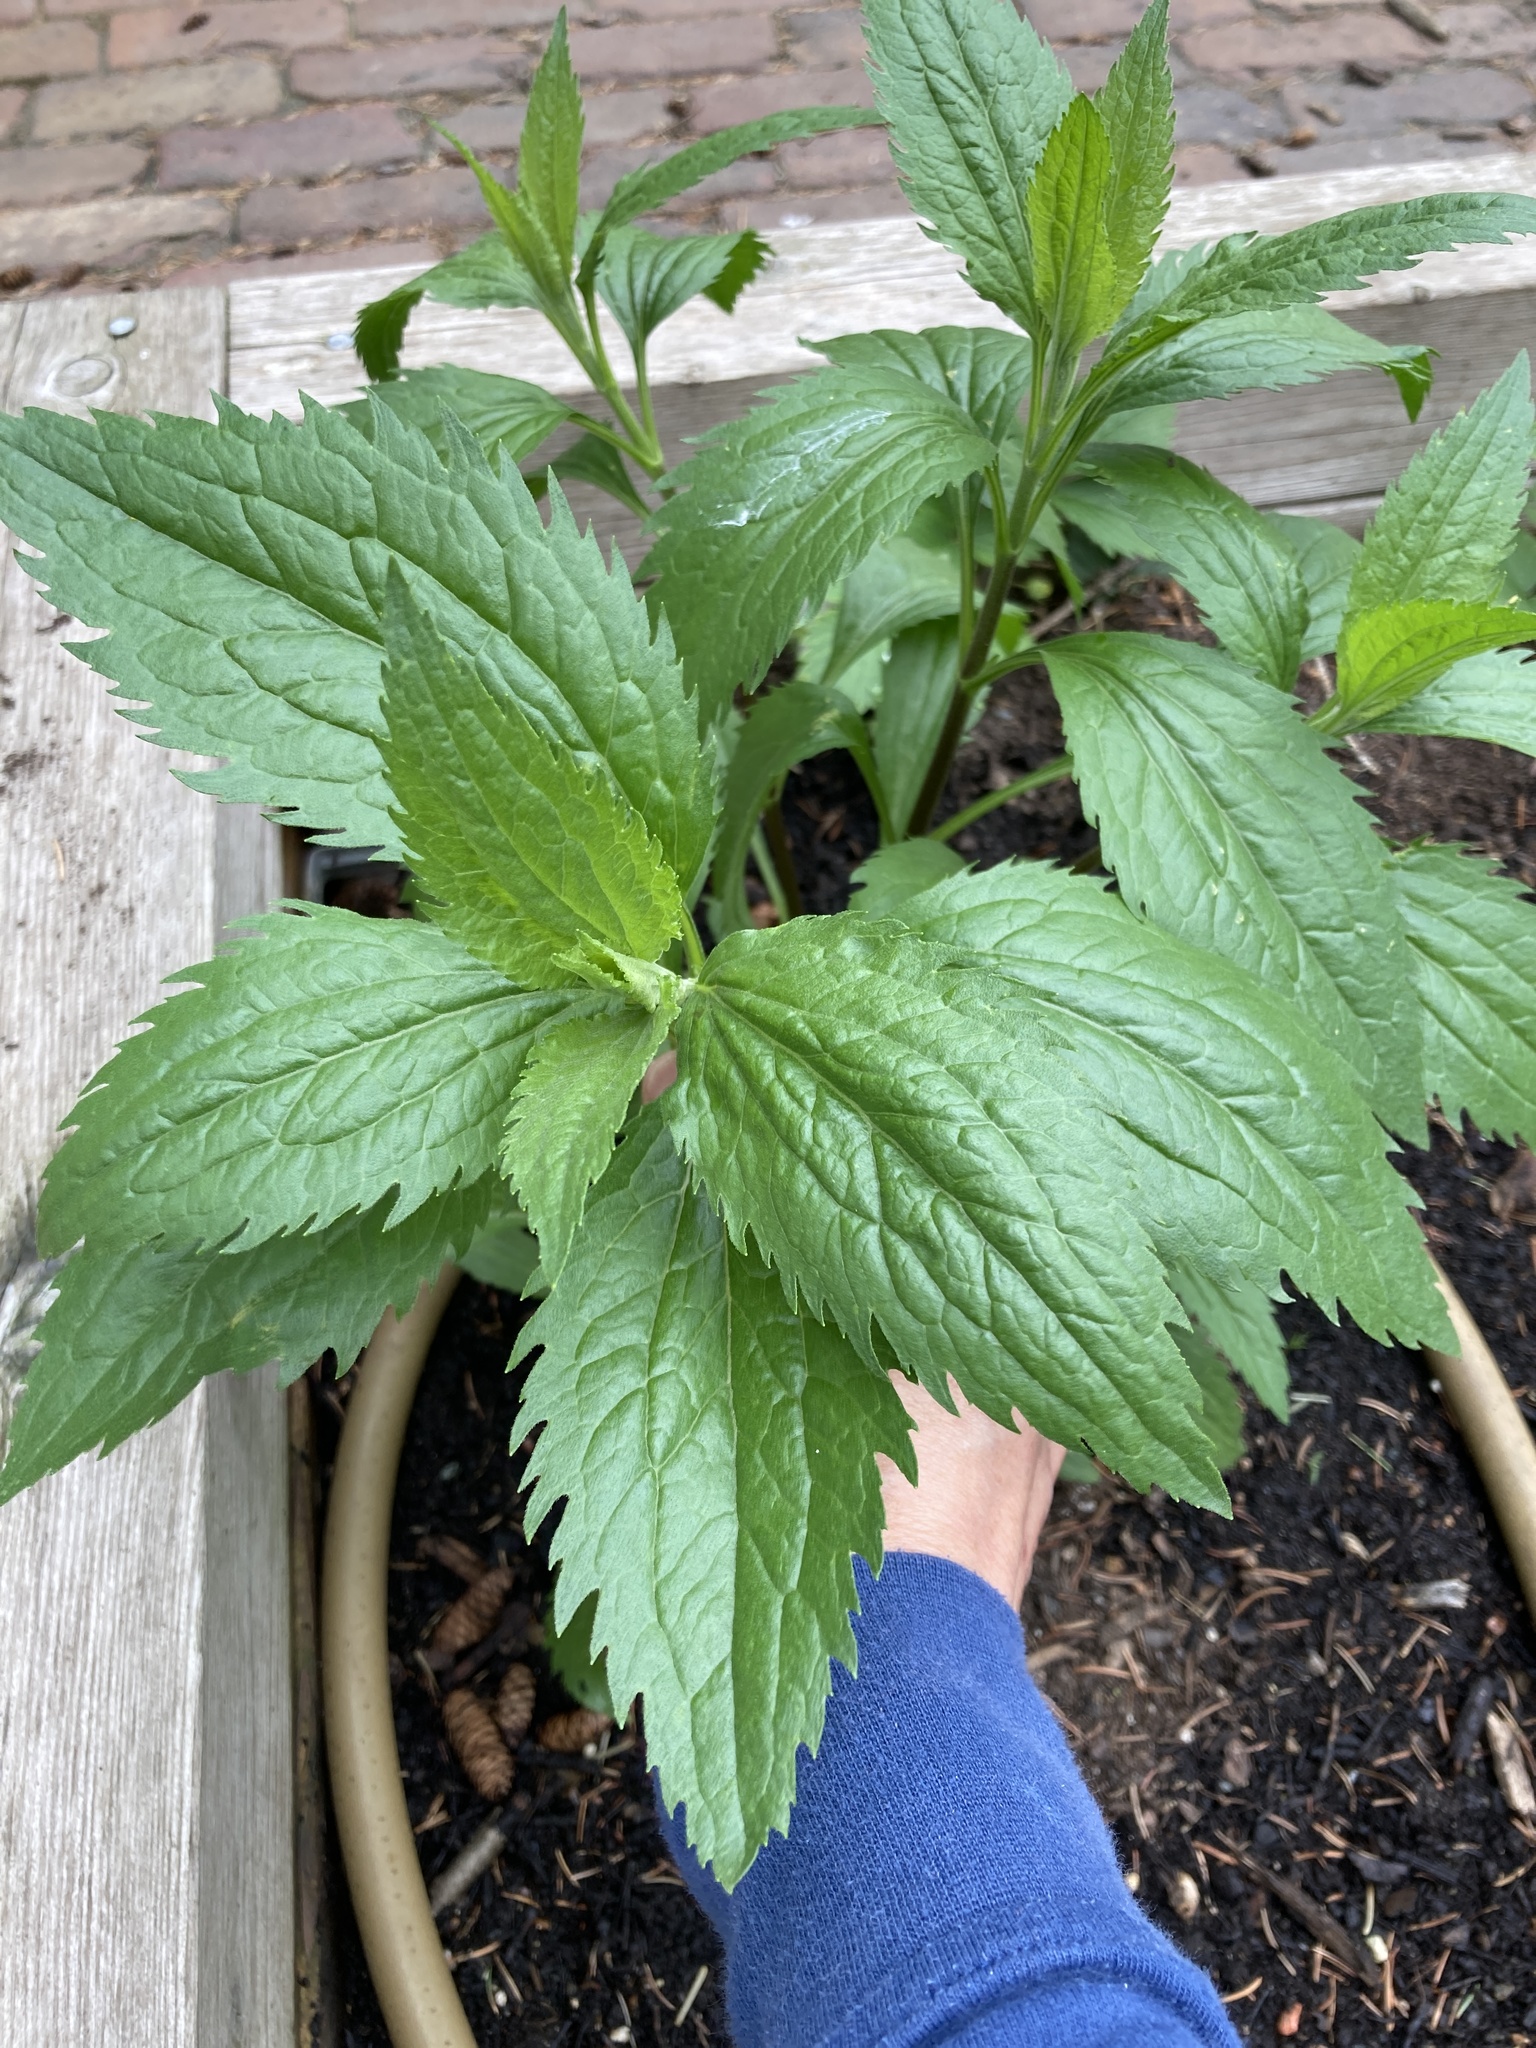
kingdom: Plantae
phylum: Tracheophyta
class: Magnoliopsida
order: Asterales
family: Asteraceae
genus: Eupatorium
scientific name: Eupatorium serotinum
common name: Late boneset
